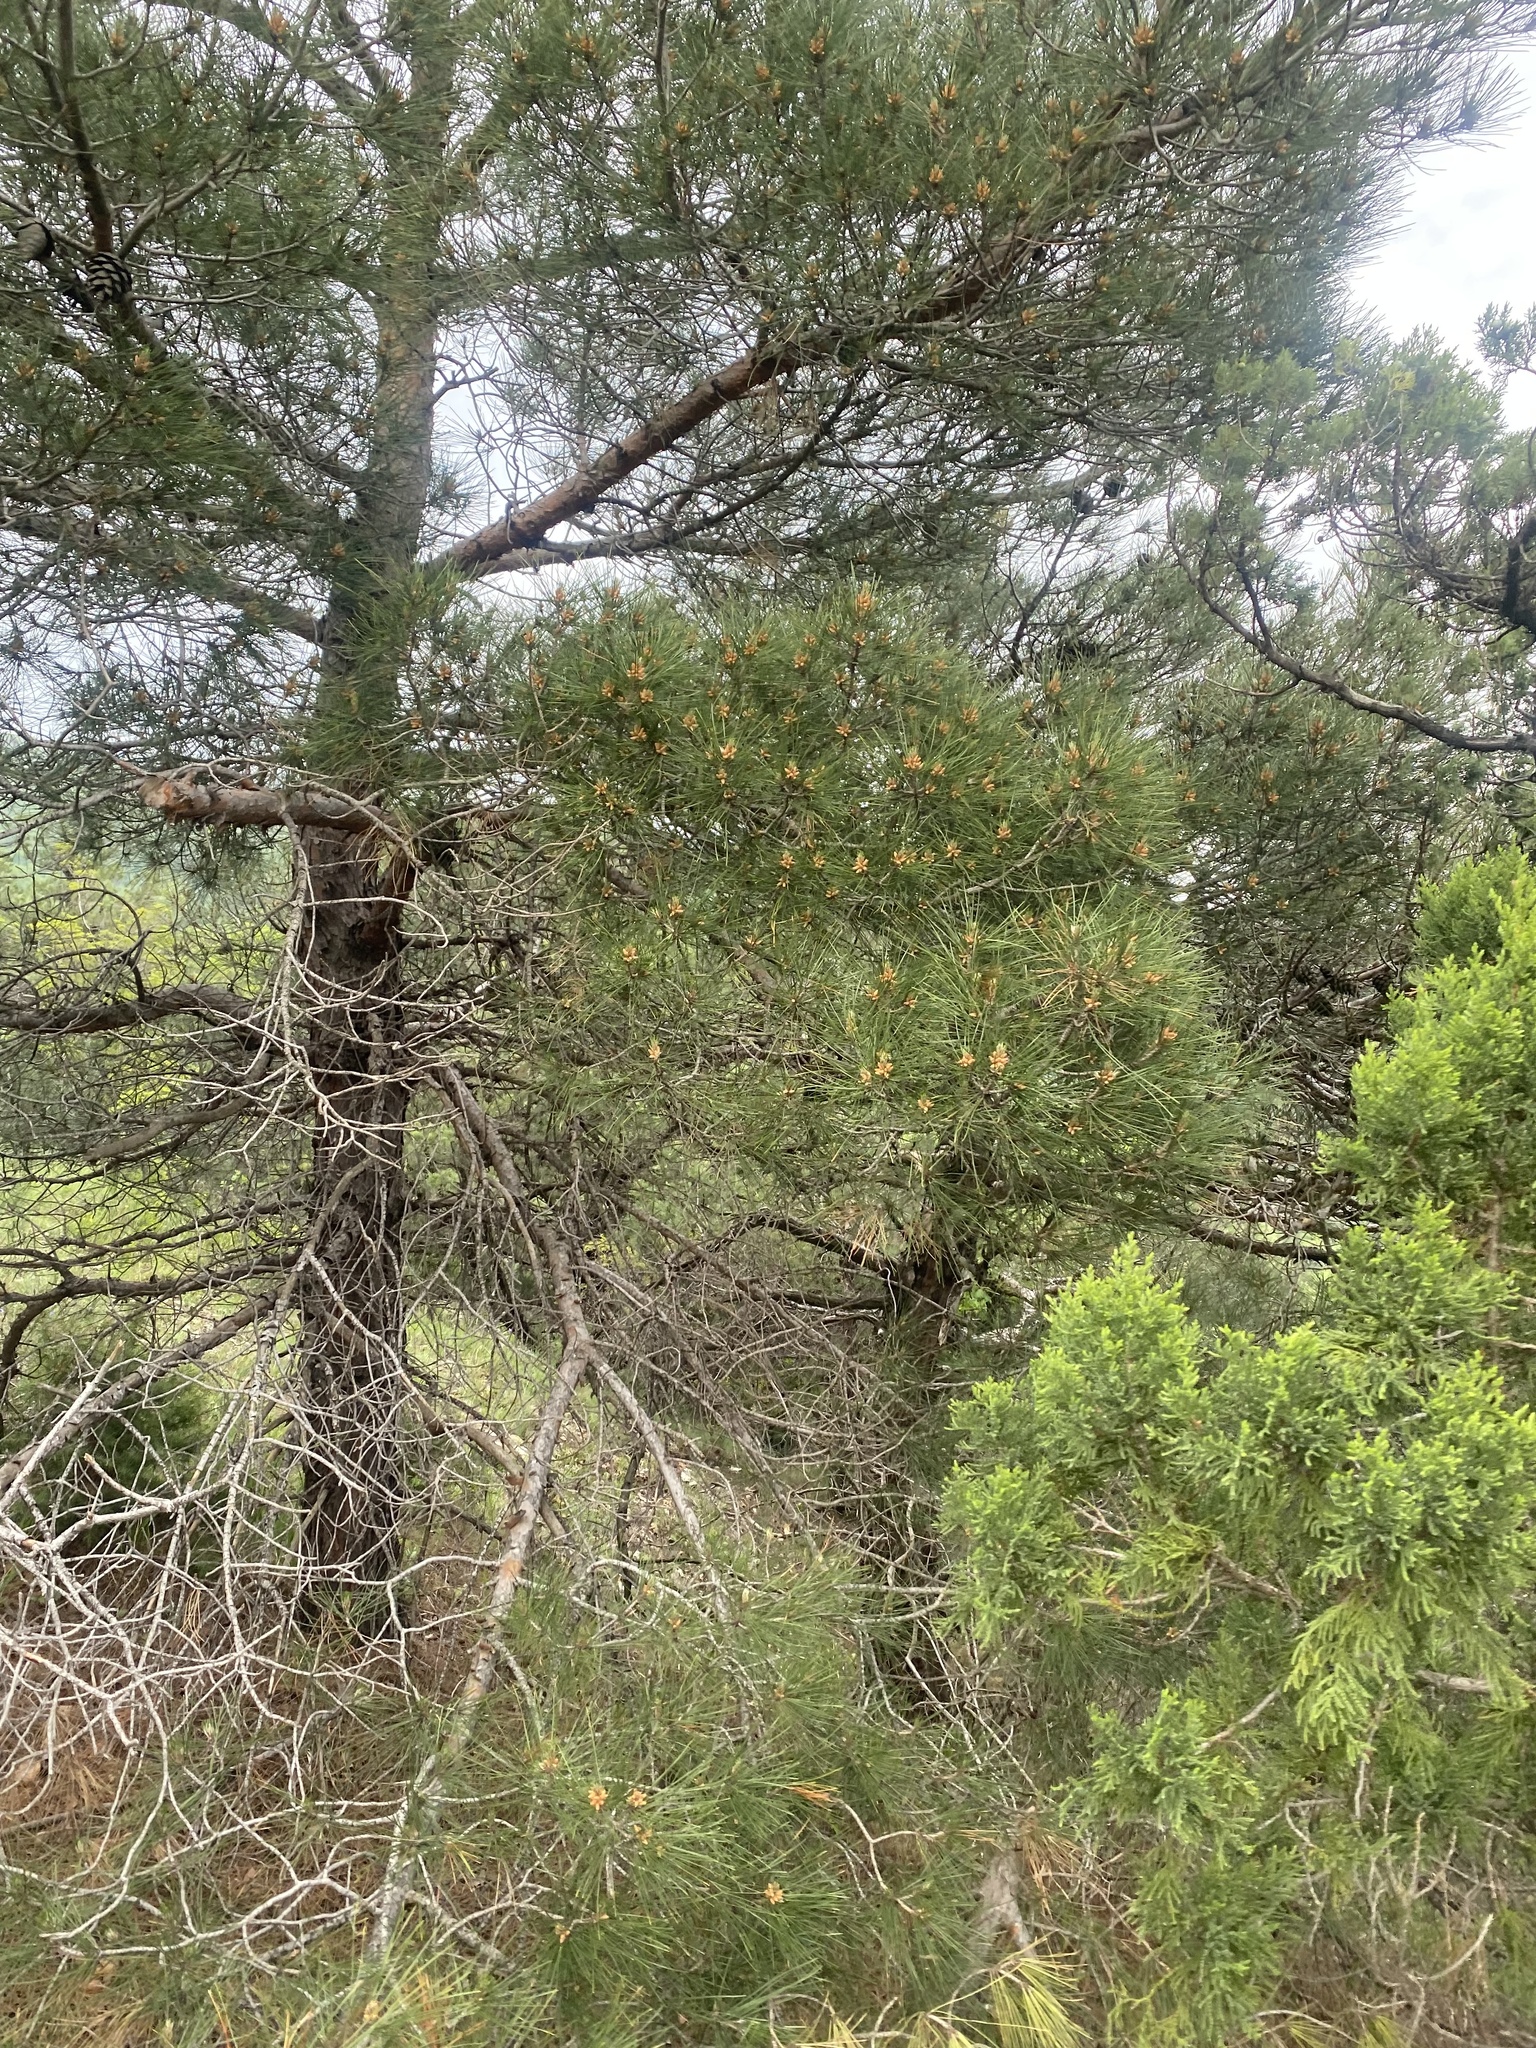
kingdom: Plantae
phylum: Tracheophyta
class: Pinopsida
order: Pinales
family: Pinaceae
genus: Pinus
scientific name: Pinus sylvestris
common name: Scots pine
